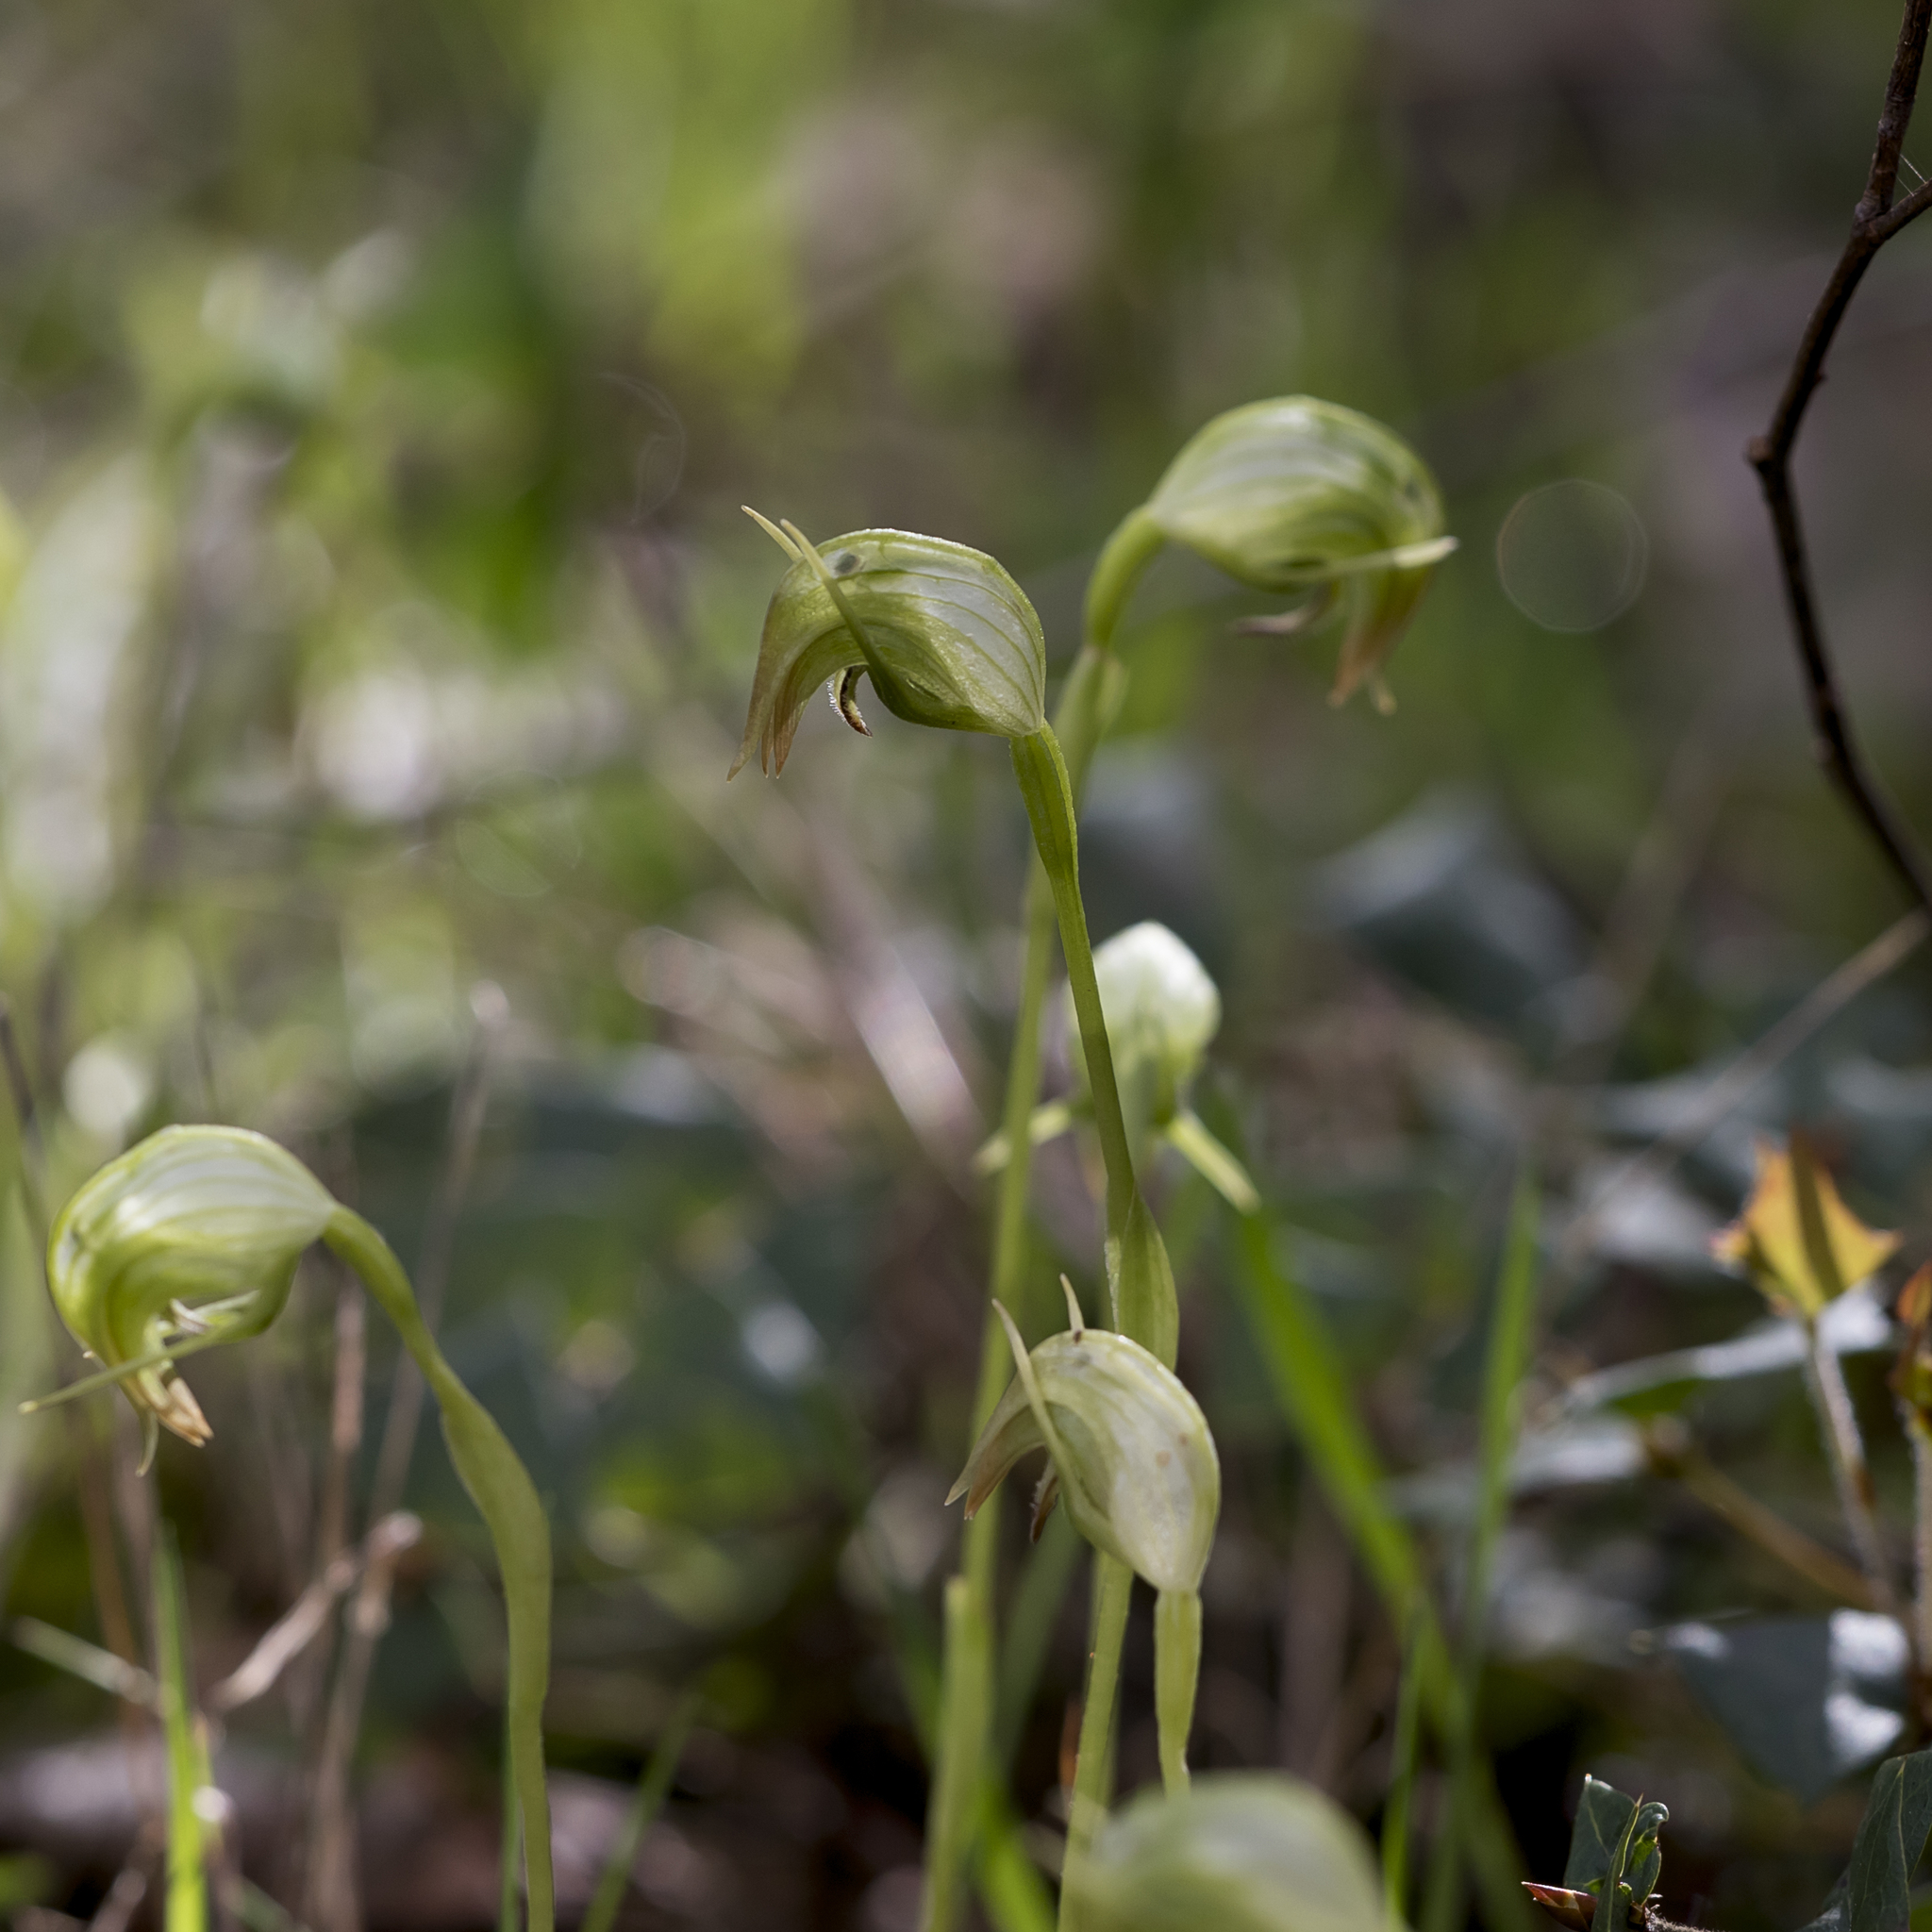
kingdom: Plantae
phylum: Tracheophyta
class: Liliopsida
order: Asparagales
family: Orchidaceae
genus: Pterostylis
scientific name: Pterostylis nutans
